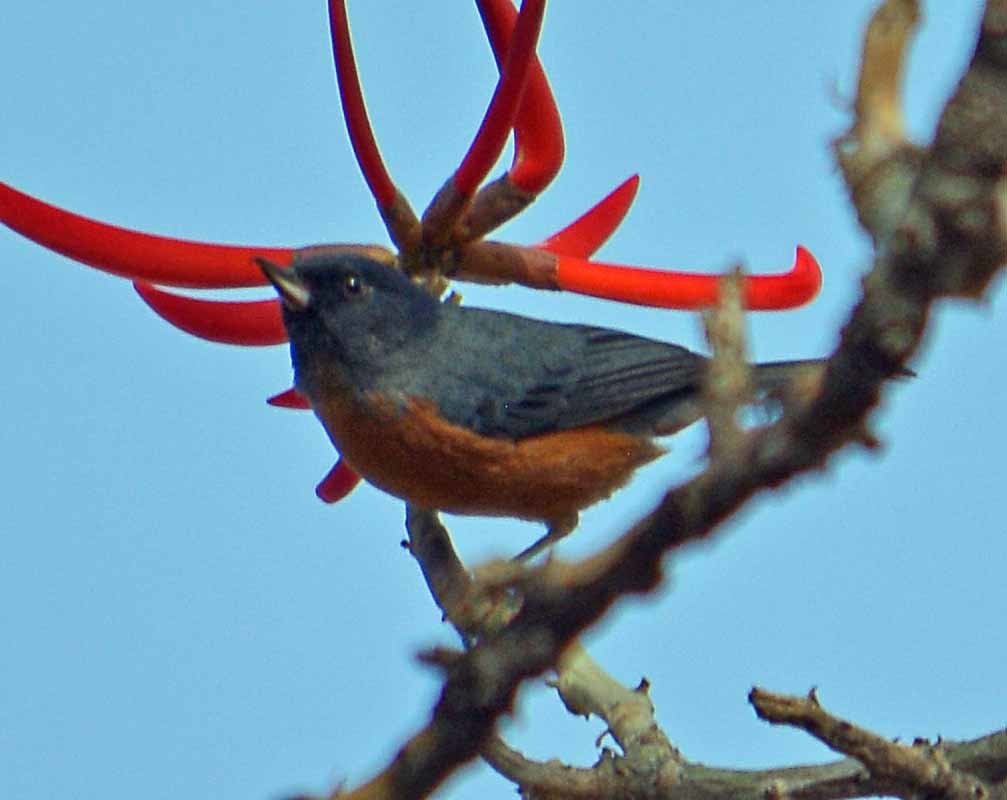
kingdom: Animalia
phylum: Chordata
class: Aves
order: Passeriformes
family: Thraupidae
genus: Diglossa
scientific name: Diglossa baritula
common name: Cinnamon-bellied flowerpiercer
